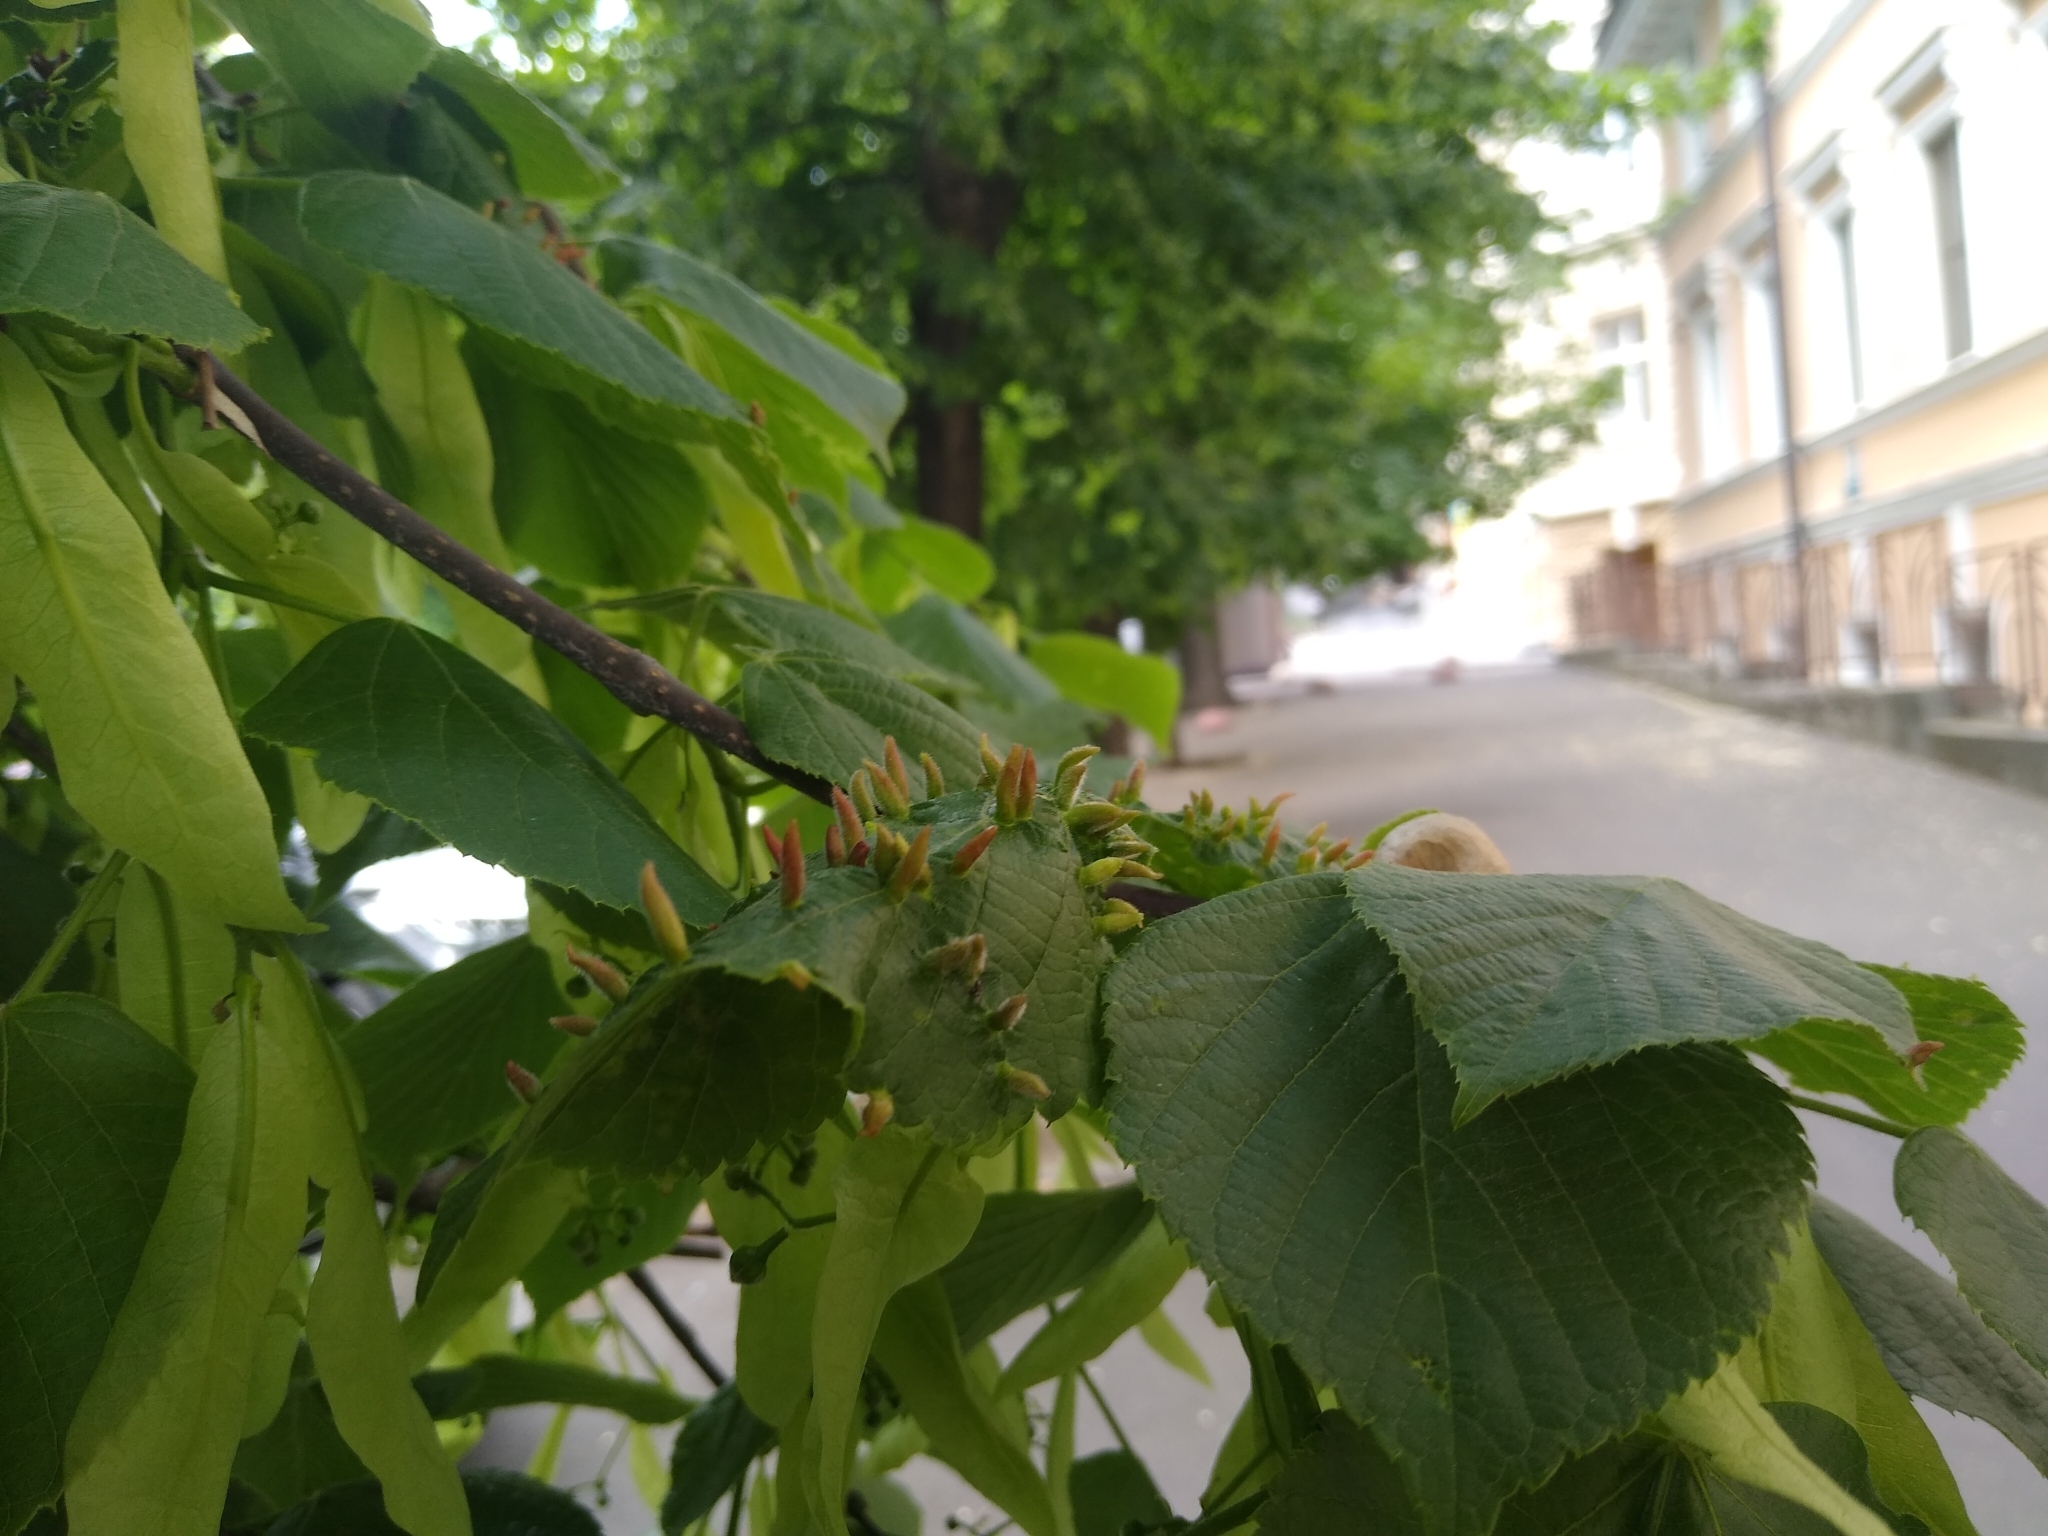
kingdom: Animalia
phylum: Arthropoda
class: Arachnida
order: Trombidiformes
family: Eriophyidae
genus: Eriophyes
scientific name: Eriophyes tiliae
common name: Red nail gall mite
